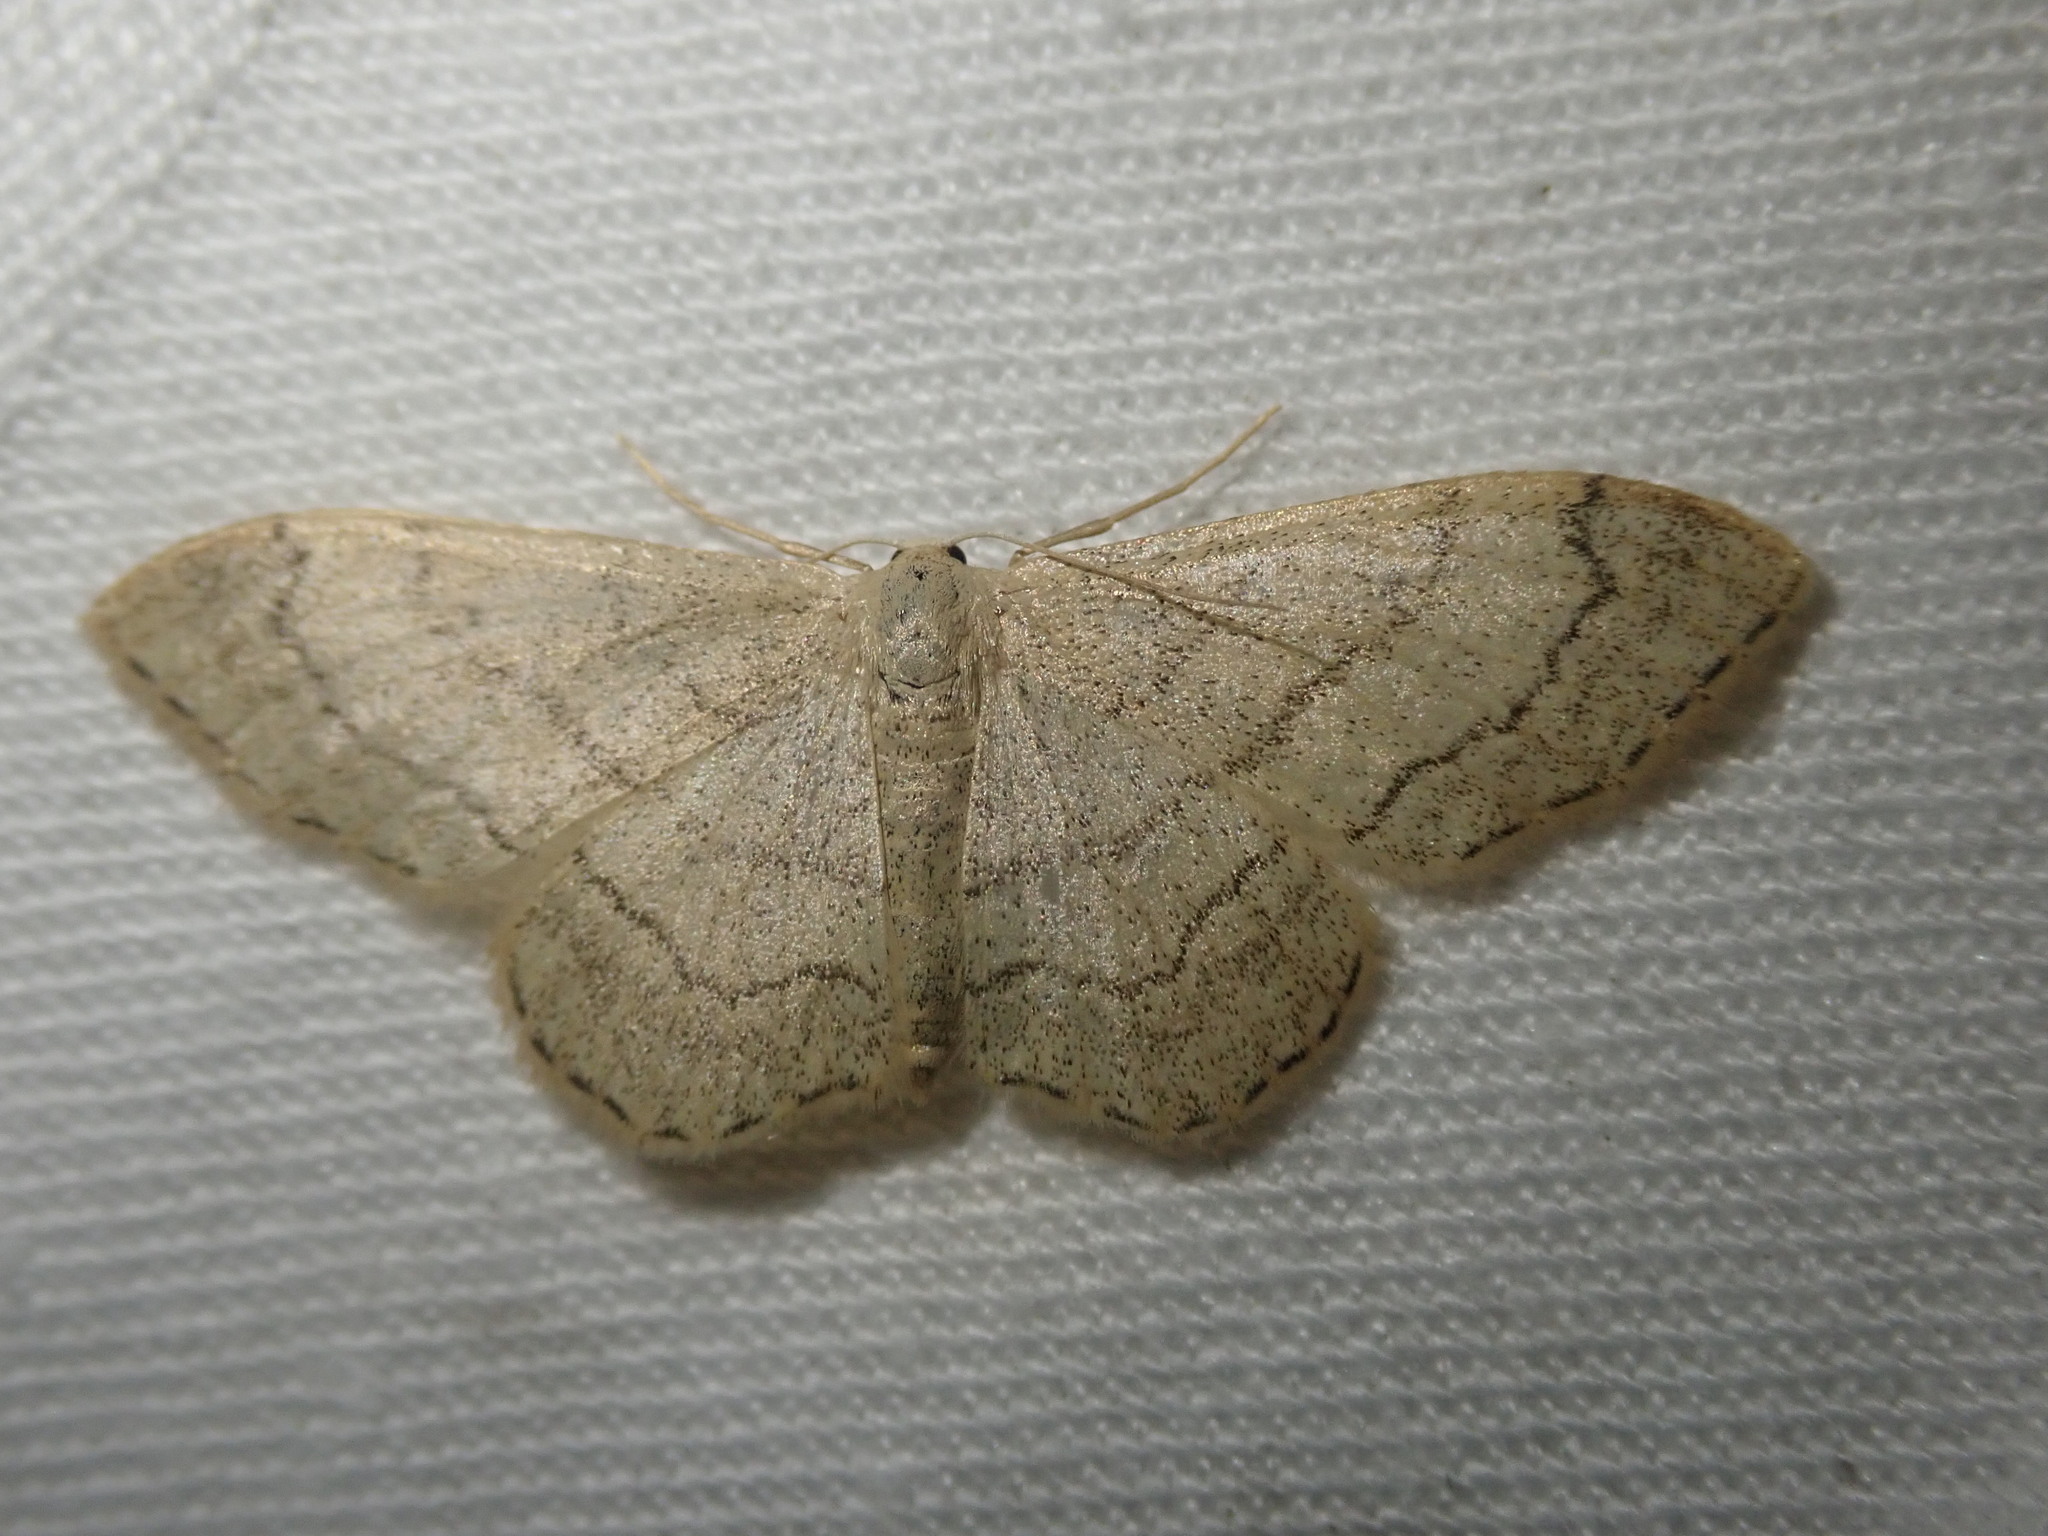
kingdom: Animalia
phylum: Arthropoda
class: Insecta
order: Lepidoptera
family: Geometridae
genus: Idaea
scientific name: Idaea aversata
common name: Riband wave
